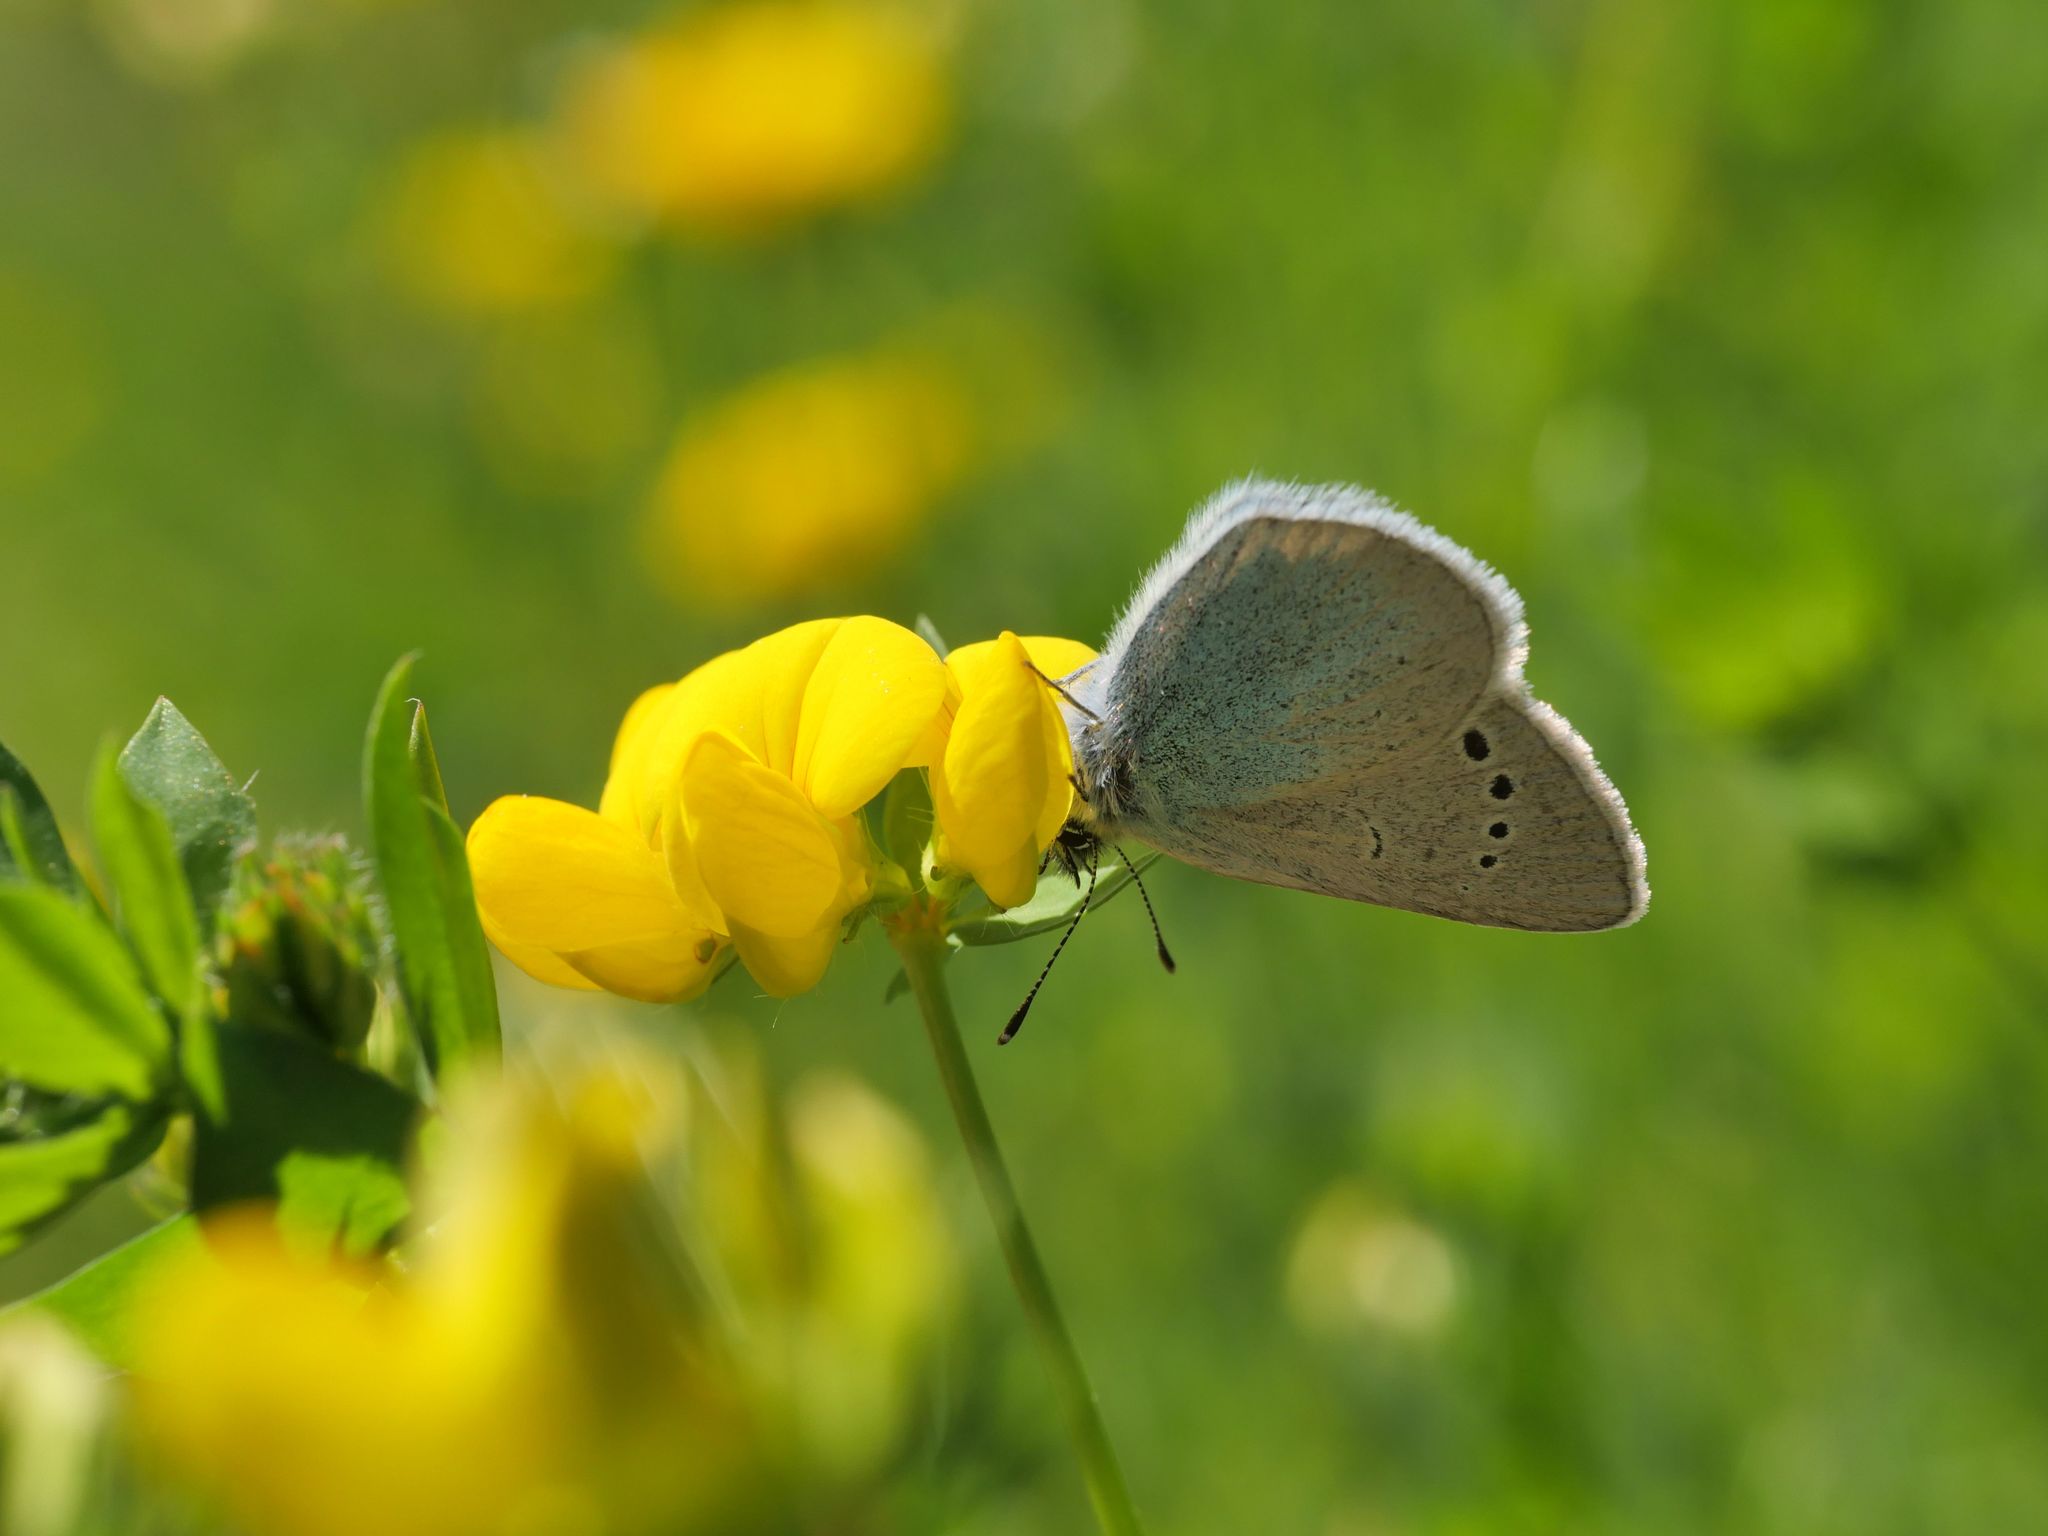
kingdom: Animalia
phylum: Arthropoda
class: Insecta
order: Lepidoptera
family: Lycaenidae
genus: Glaucopsyche
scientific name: Glaucopsyche alexis
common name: Green-underside blue
